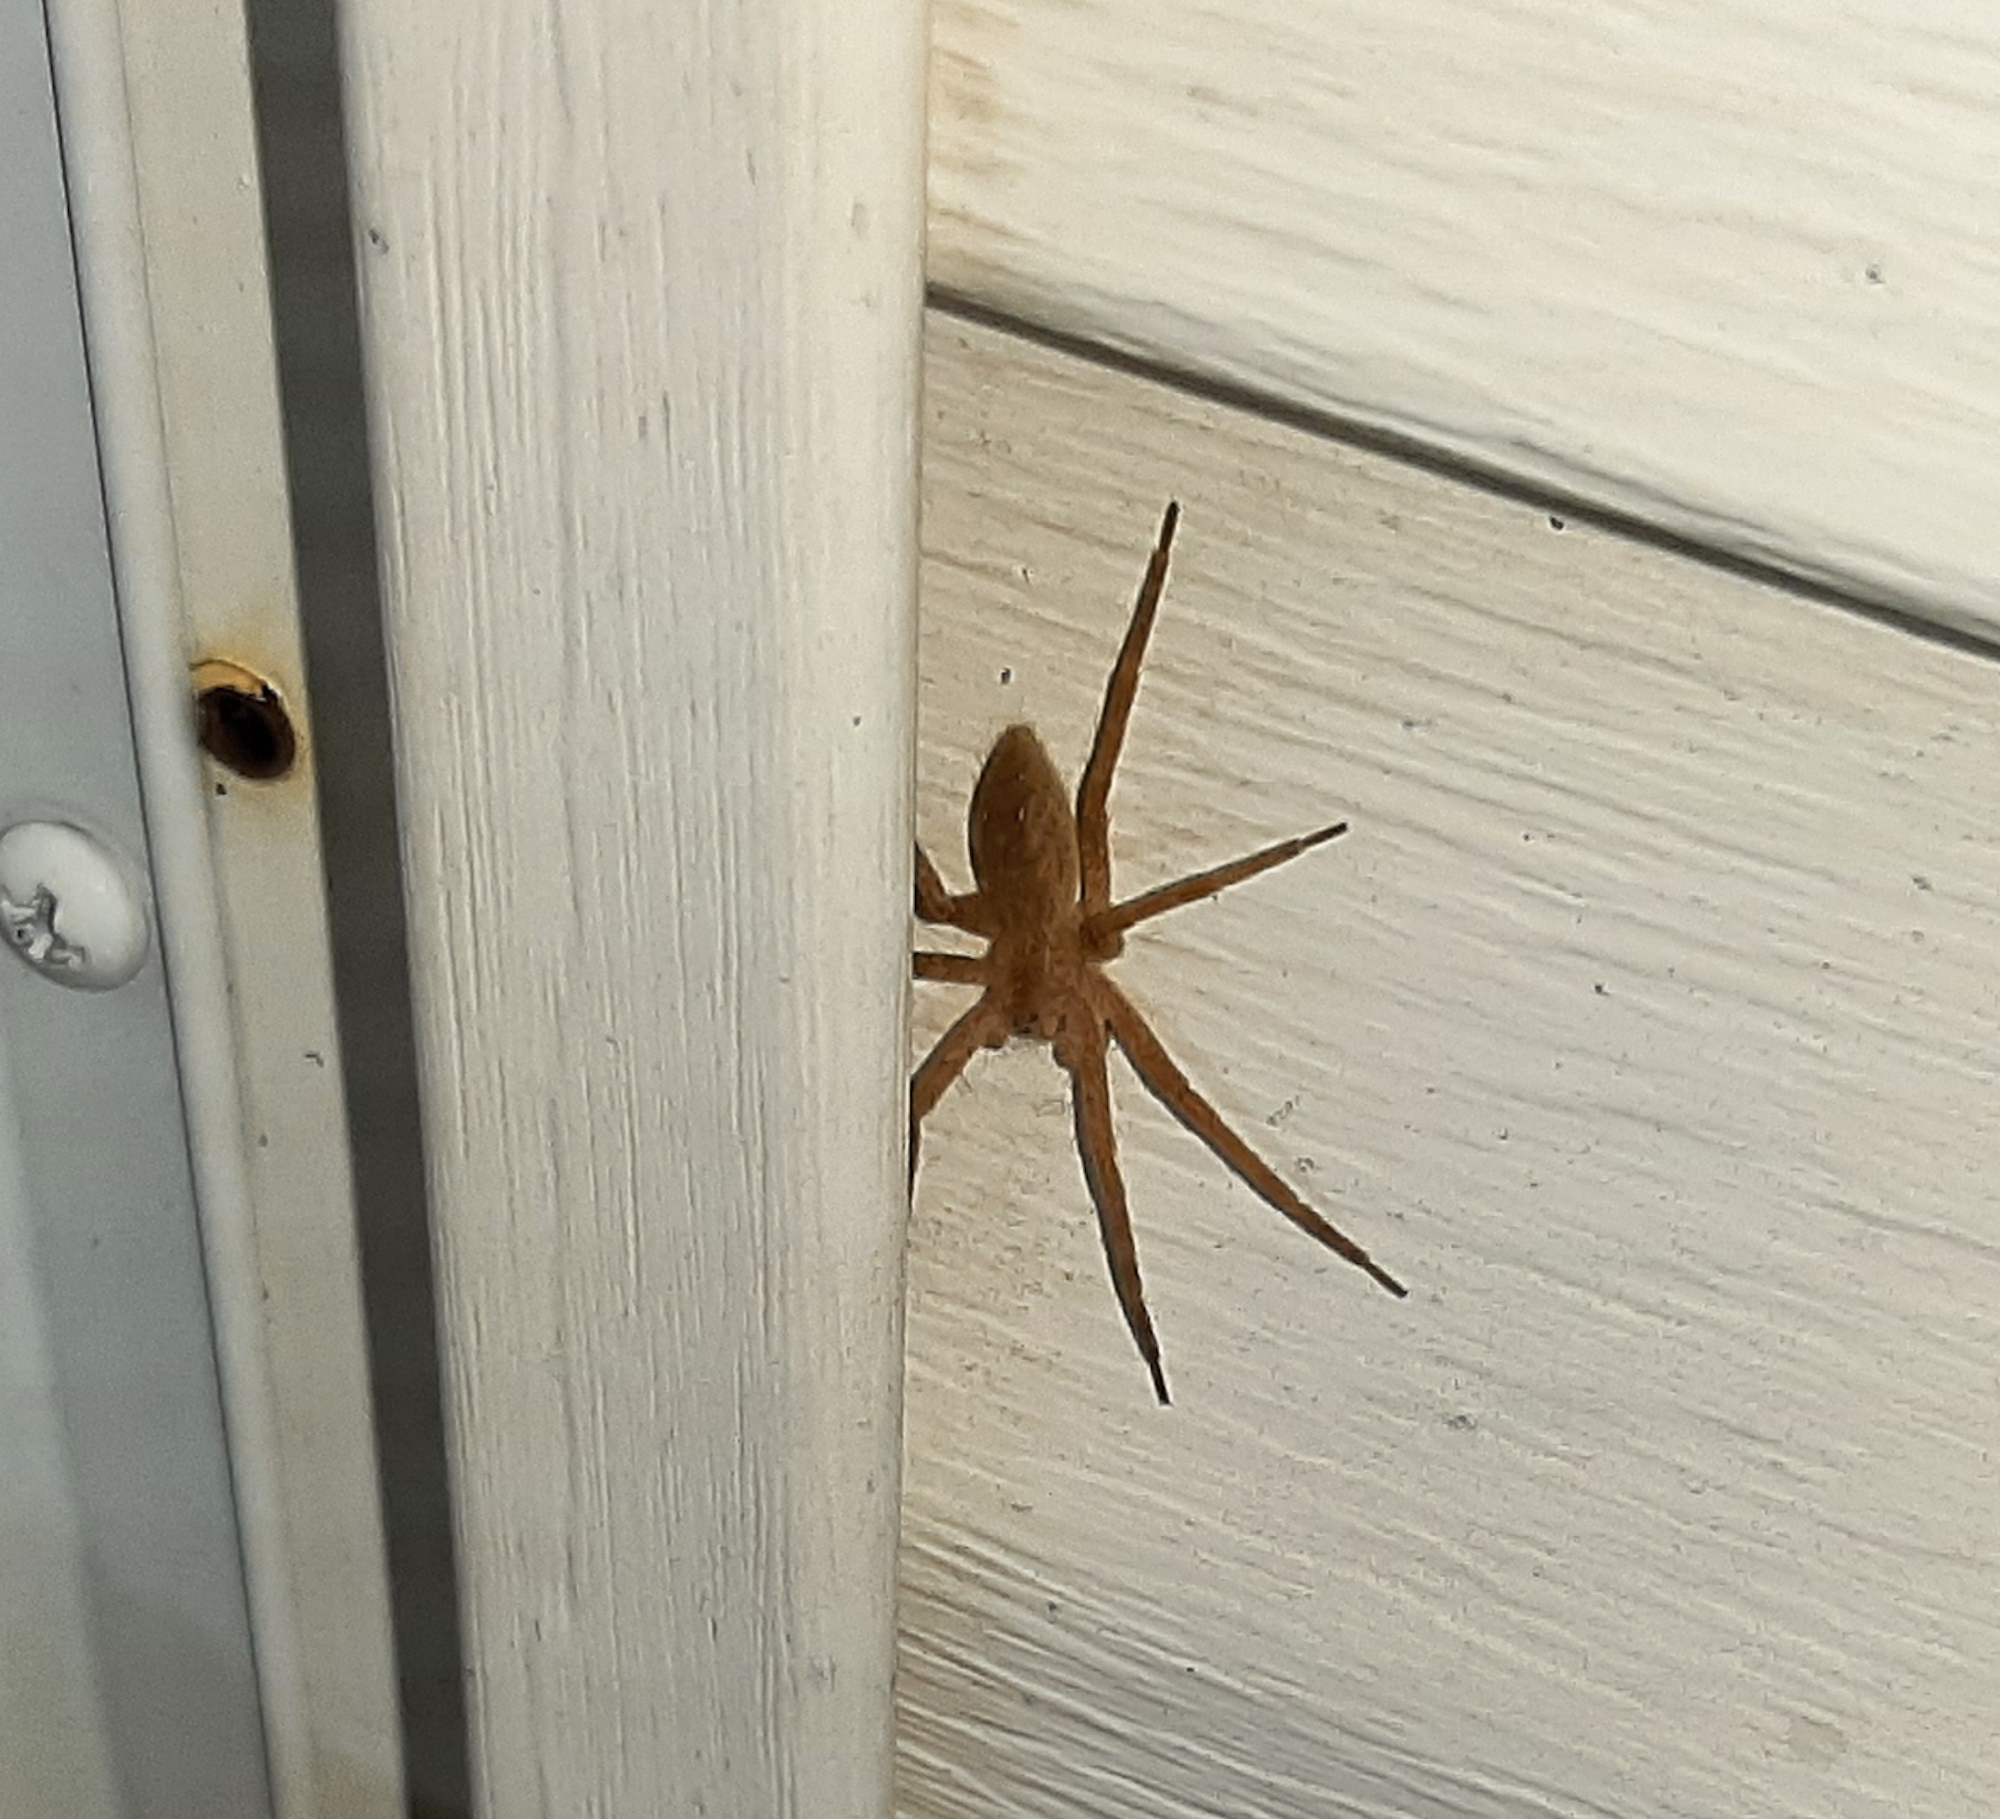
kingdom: Animalia
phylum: Arthropoda
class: Arachnida
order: Araneae
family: Pisauridae
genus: Pisaurina
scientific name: Pisaurina mira
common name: American nursery web spider
